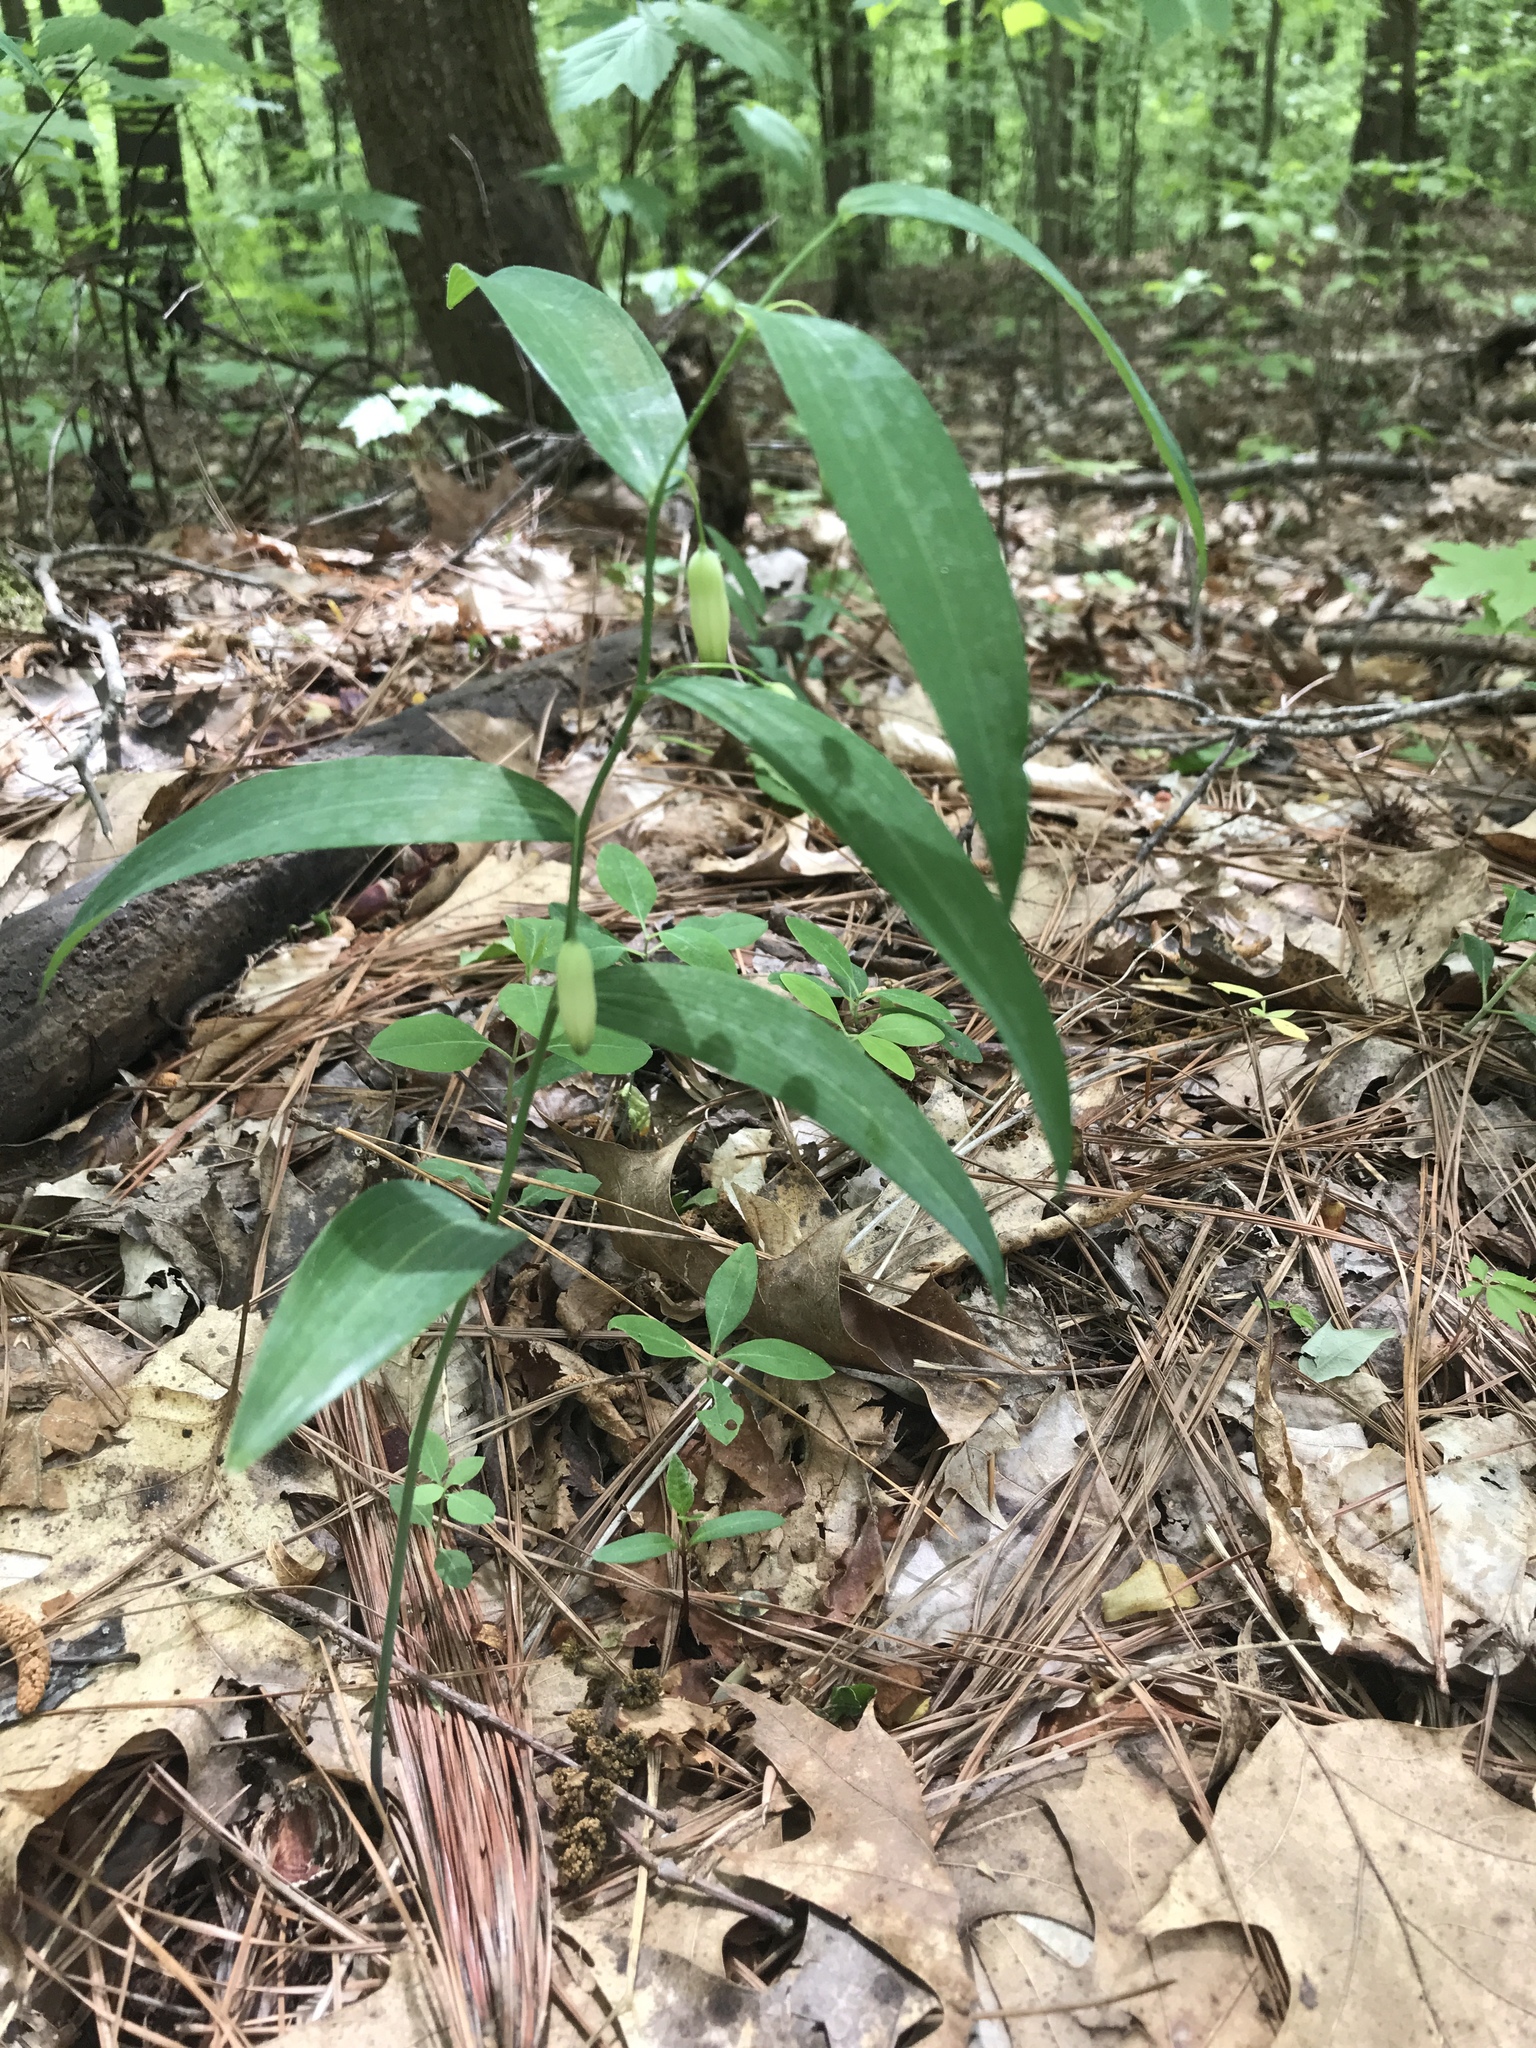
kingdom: Plantae
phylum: Tracheophyta
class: Liliopsida
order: Asparagales
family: Asparagaceae
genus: Polygonatum
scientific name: Polygonatum biflorum
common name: American solomon's-seal
